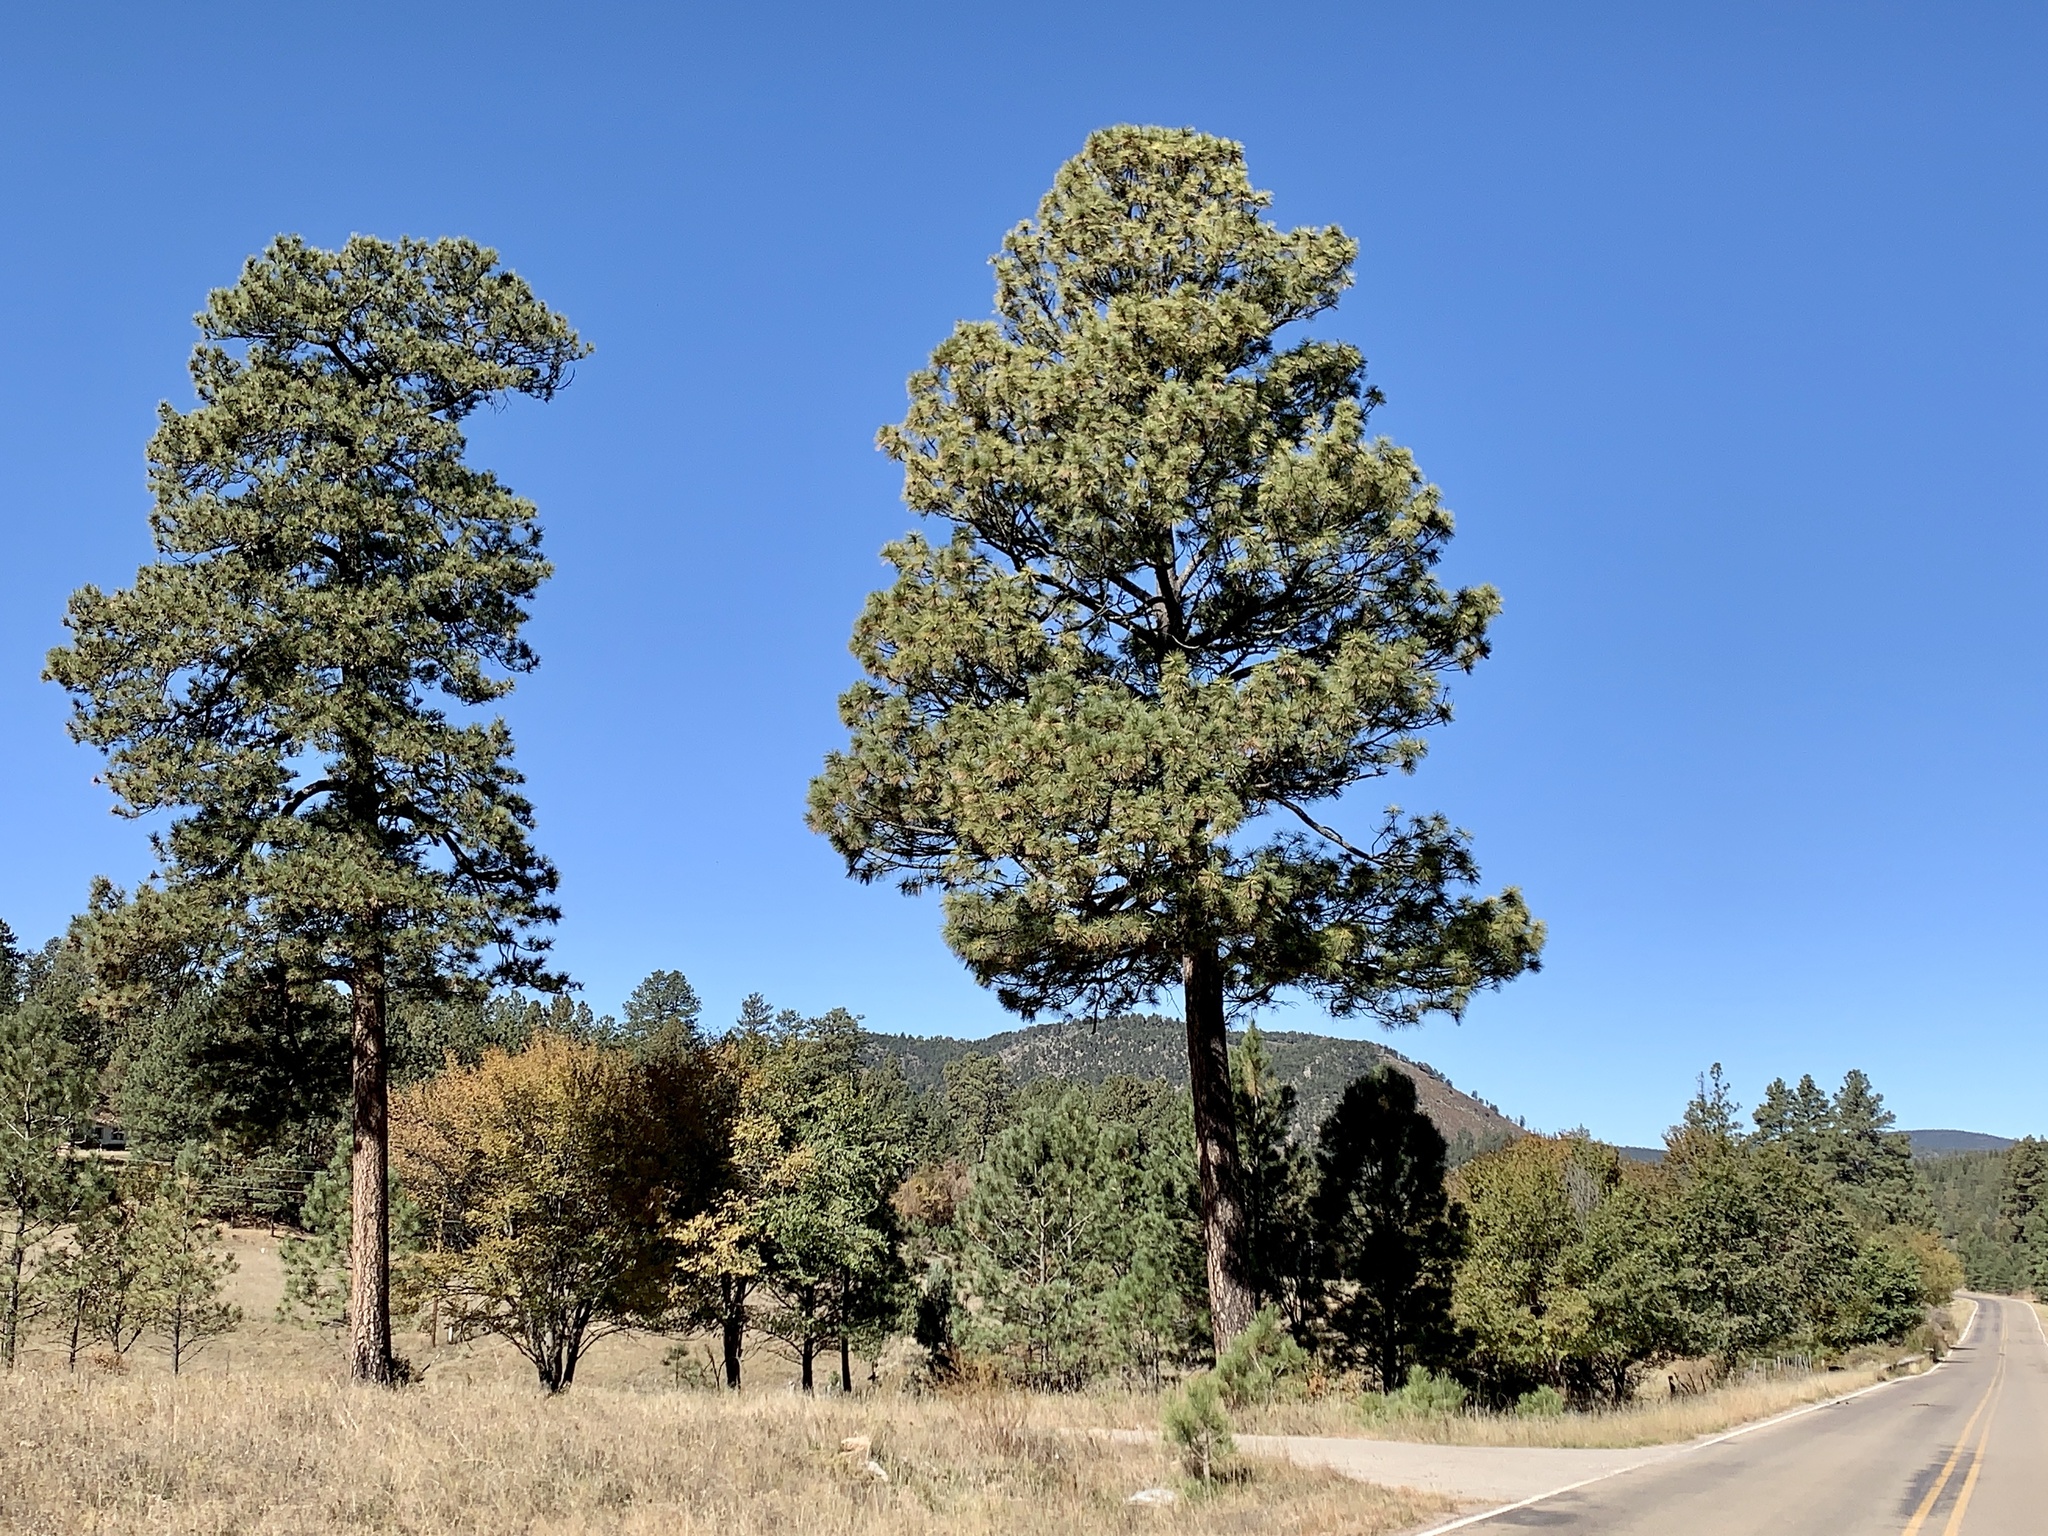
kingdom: Plantae
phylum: Tracheophyta
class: Pinopsida
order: Pinales
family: Pinaceae
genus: Pinus
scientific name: Pinus ponderosa
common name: Western yellow-pine
